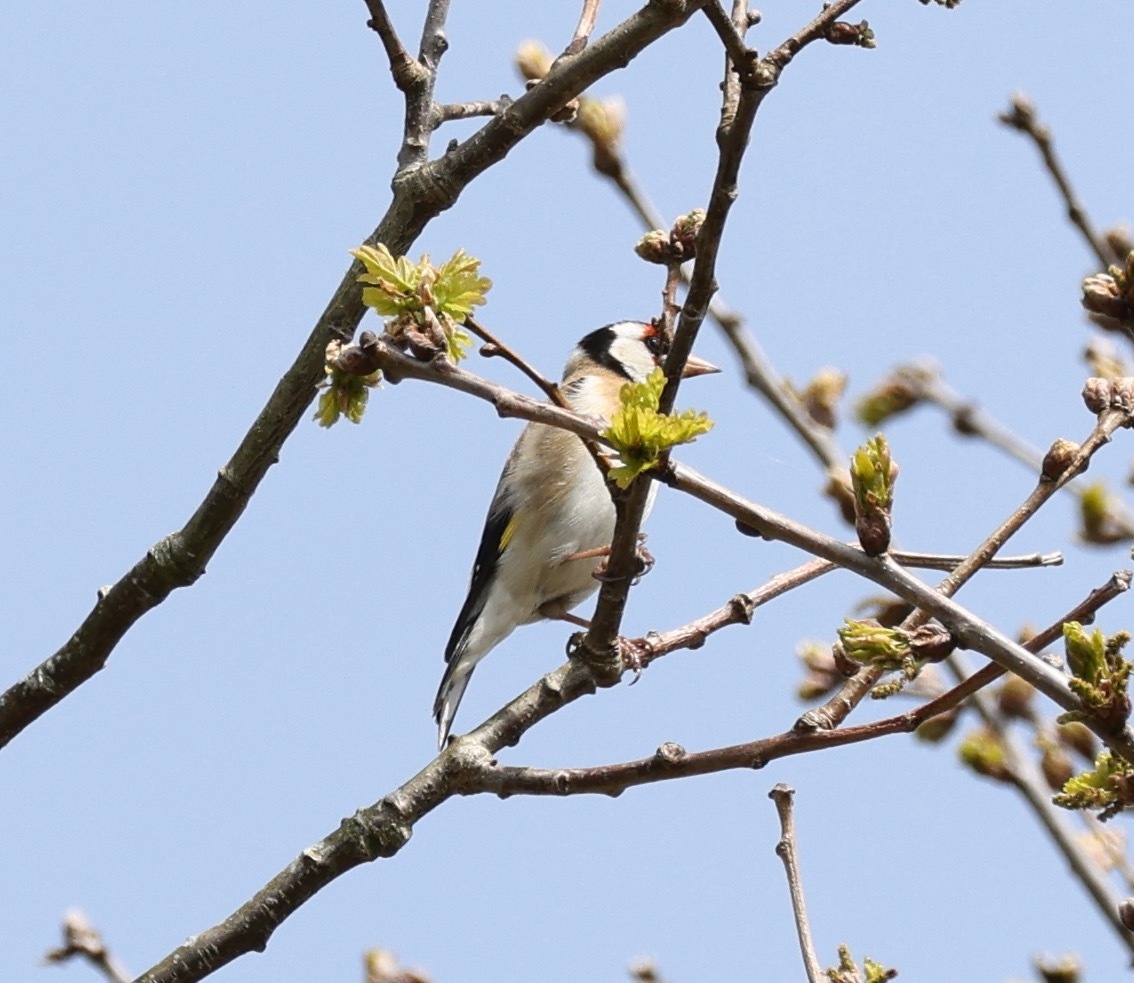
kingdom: Animalia
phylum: Chordata
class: Aves
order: Passeriformes
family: Fringillidae
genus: Carduelis
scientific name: Carduelis carduelis
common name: European goldfinch
